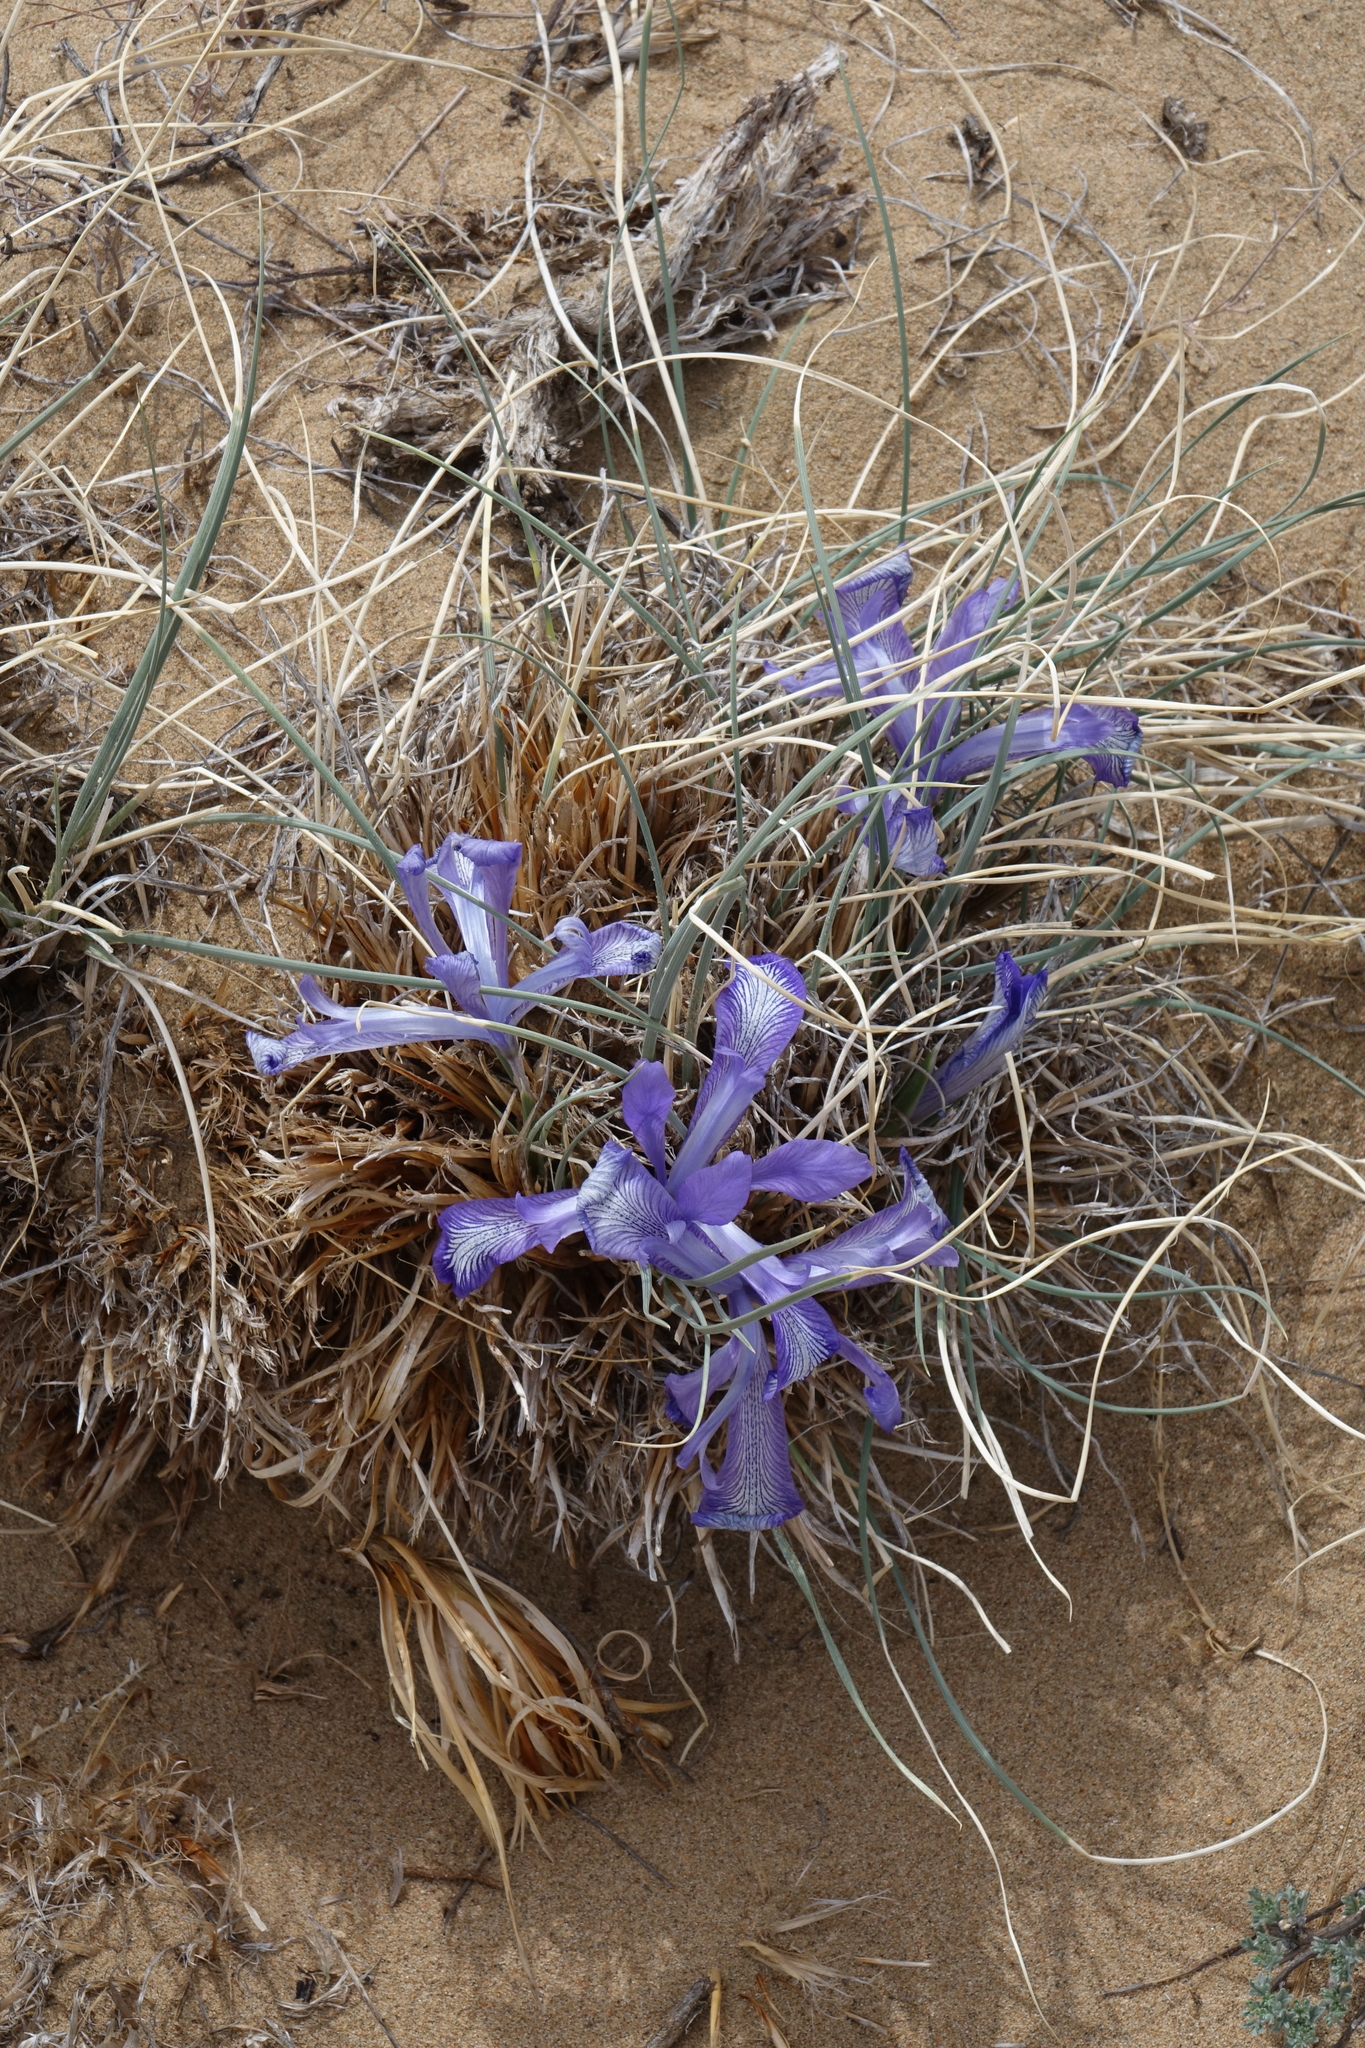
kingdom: Plantae
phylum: Tracheophyta
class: Liliopsida
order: Asparagales
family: Iridaceae
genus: Iris
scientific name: Iris tenuifolia
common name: Slender-leaf iris
